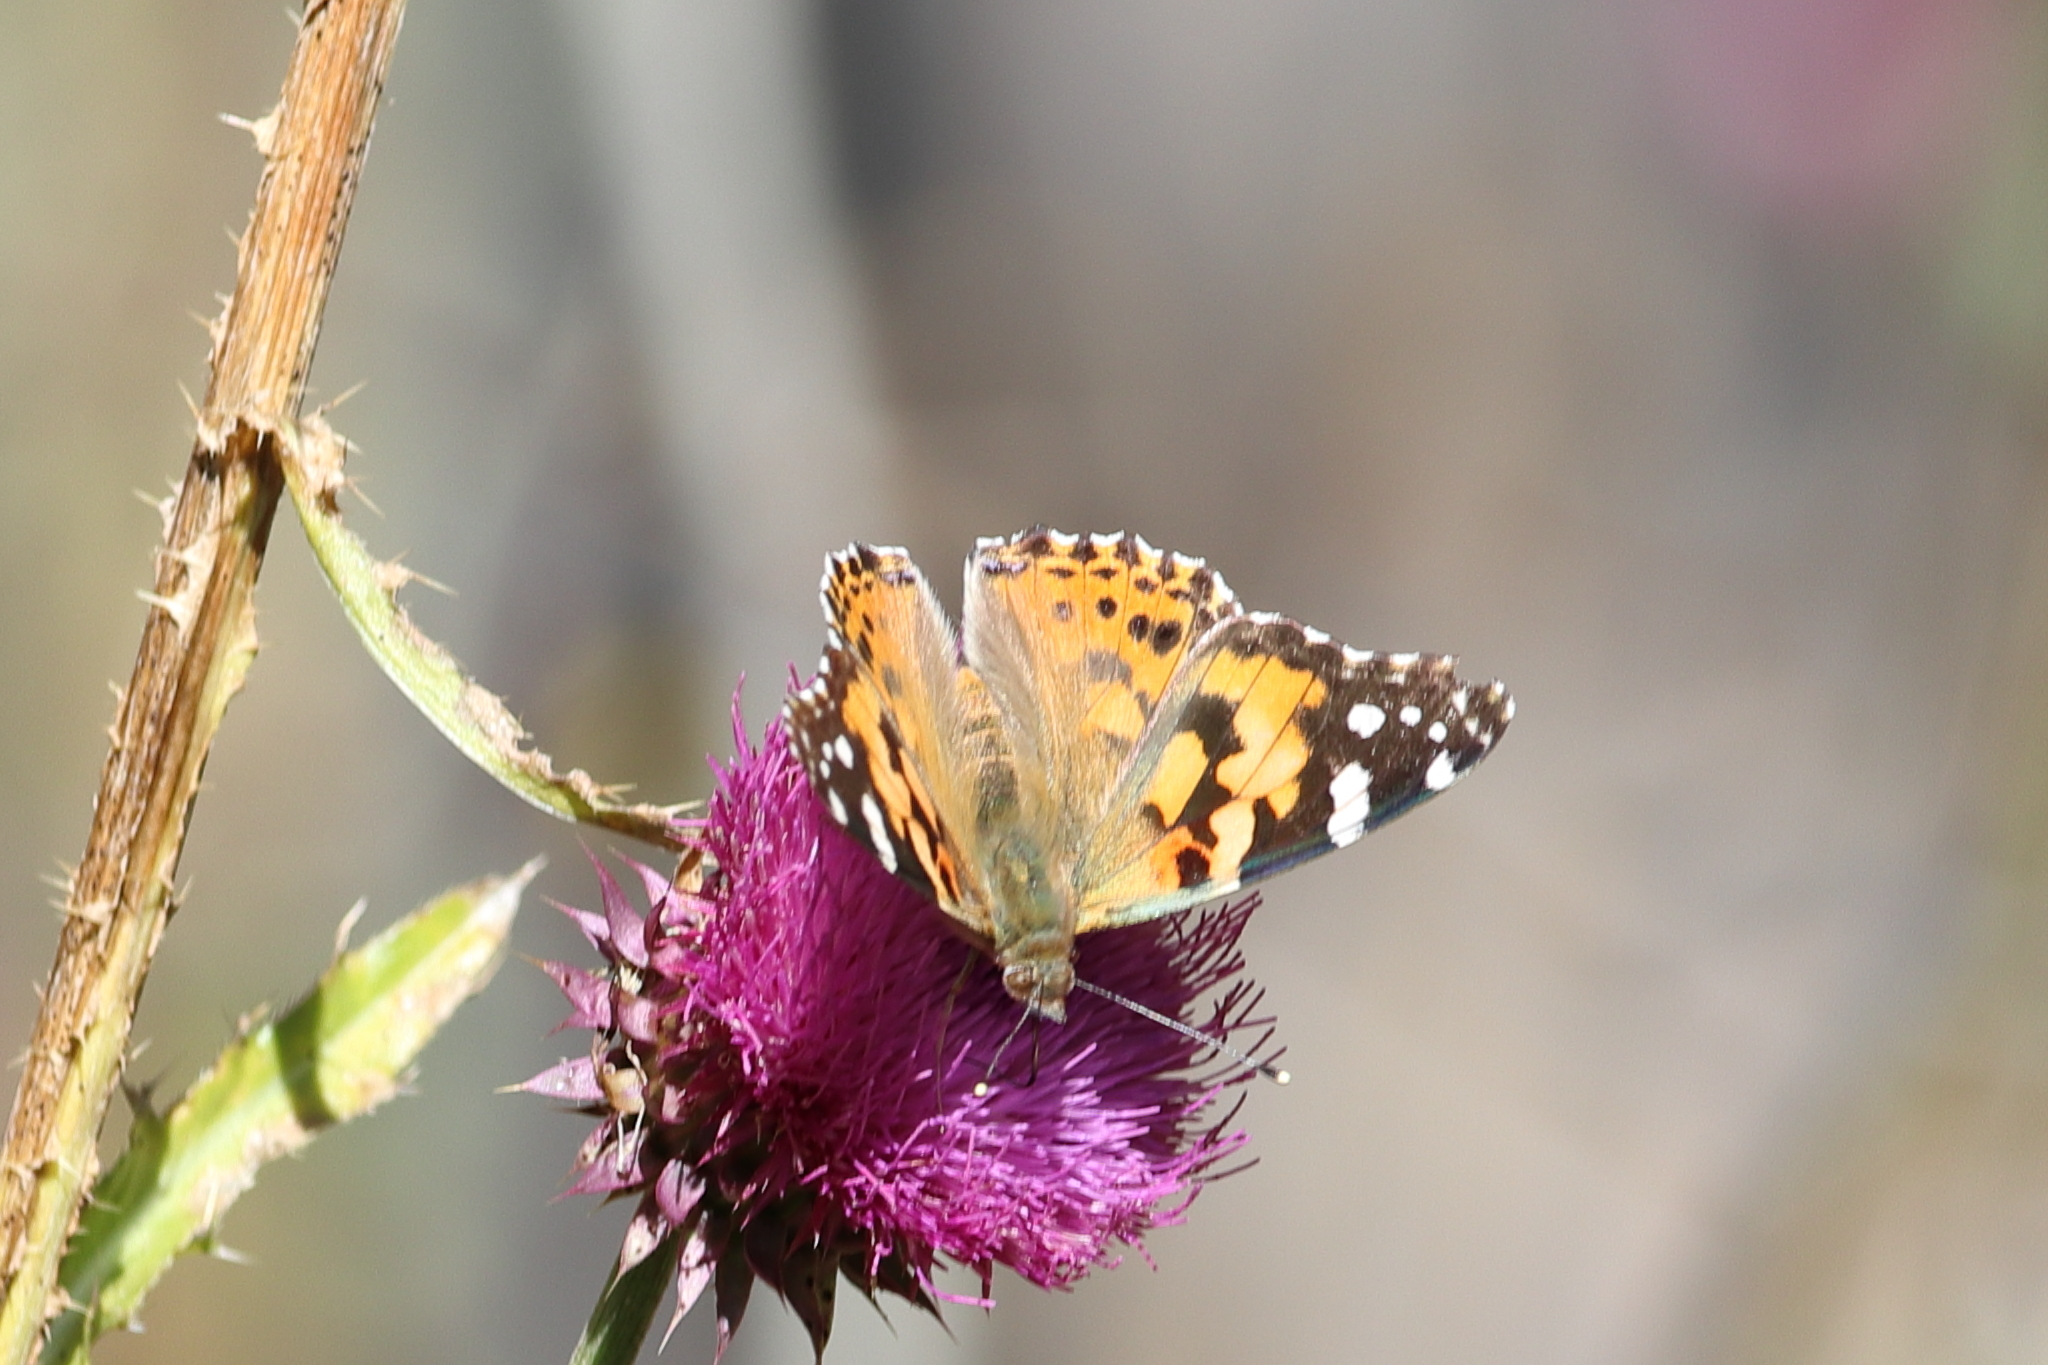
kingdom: Animalia
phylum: Arthropoda
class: Insecta
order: Lepidoptera
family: Nymphalidae
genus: Vanessa
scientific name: Vanessa cardui
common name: Painted lady
